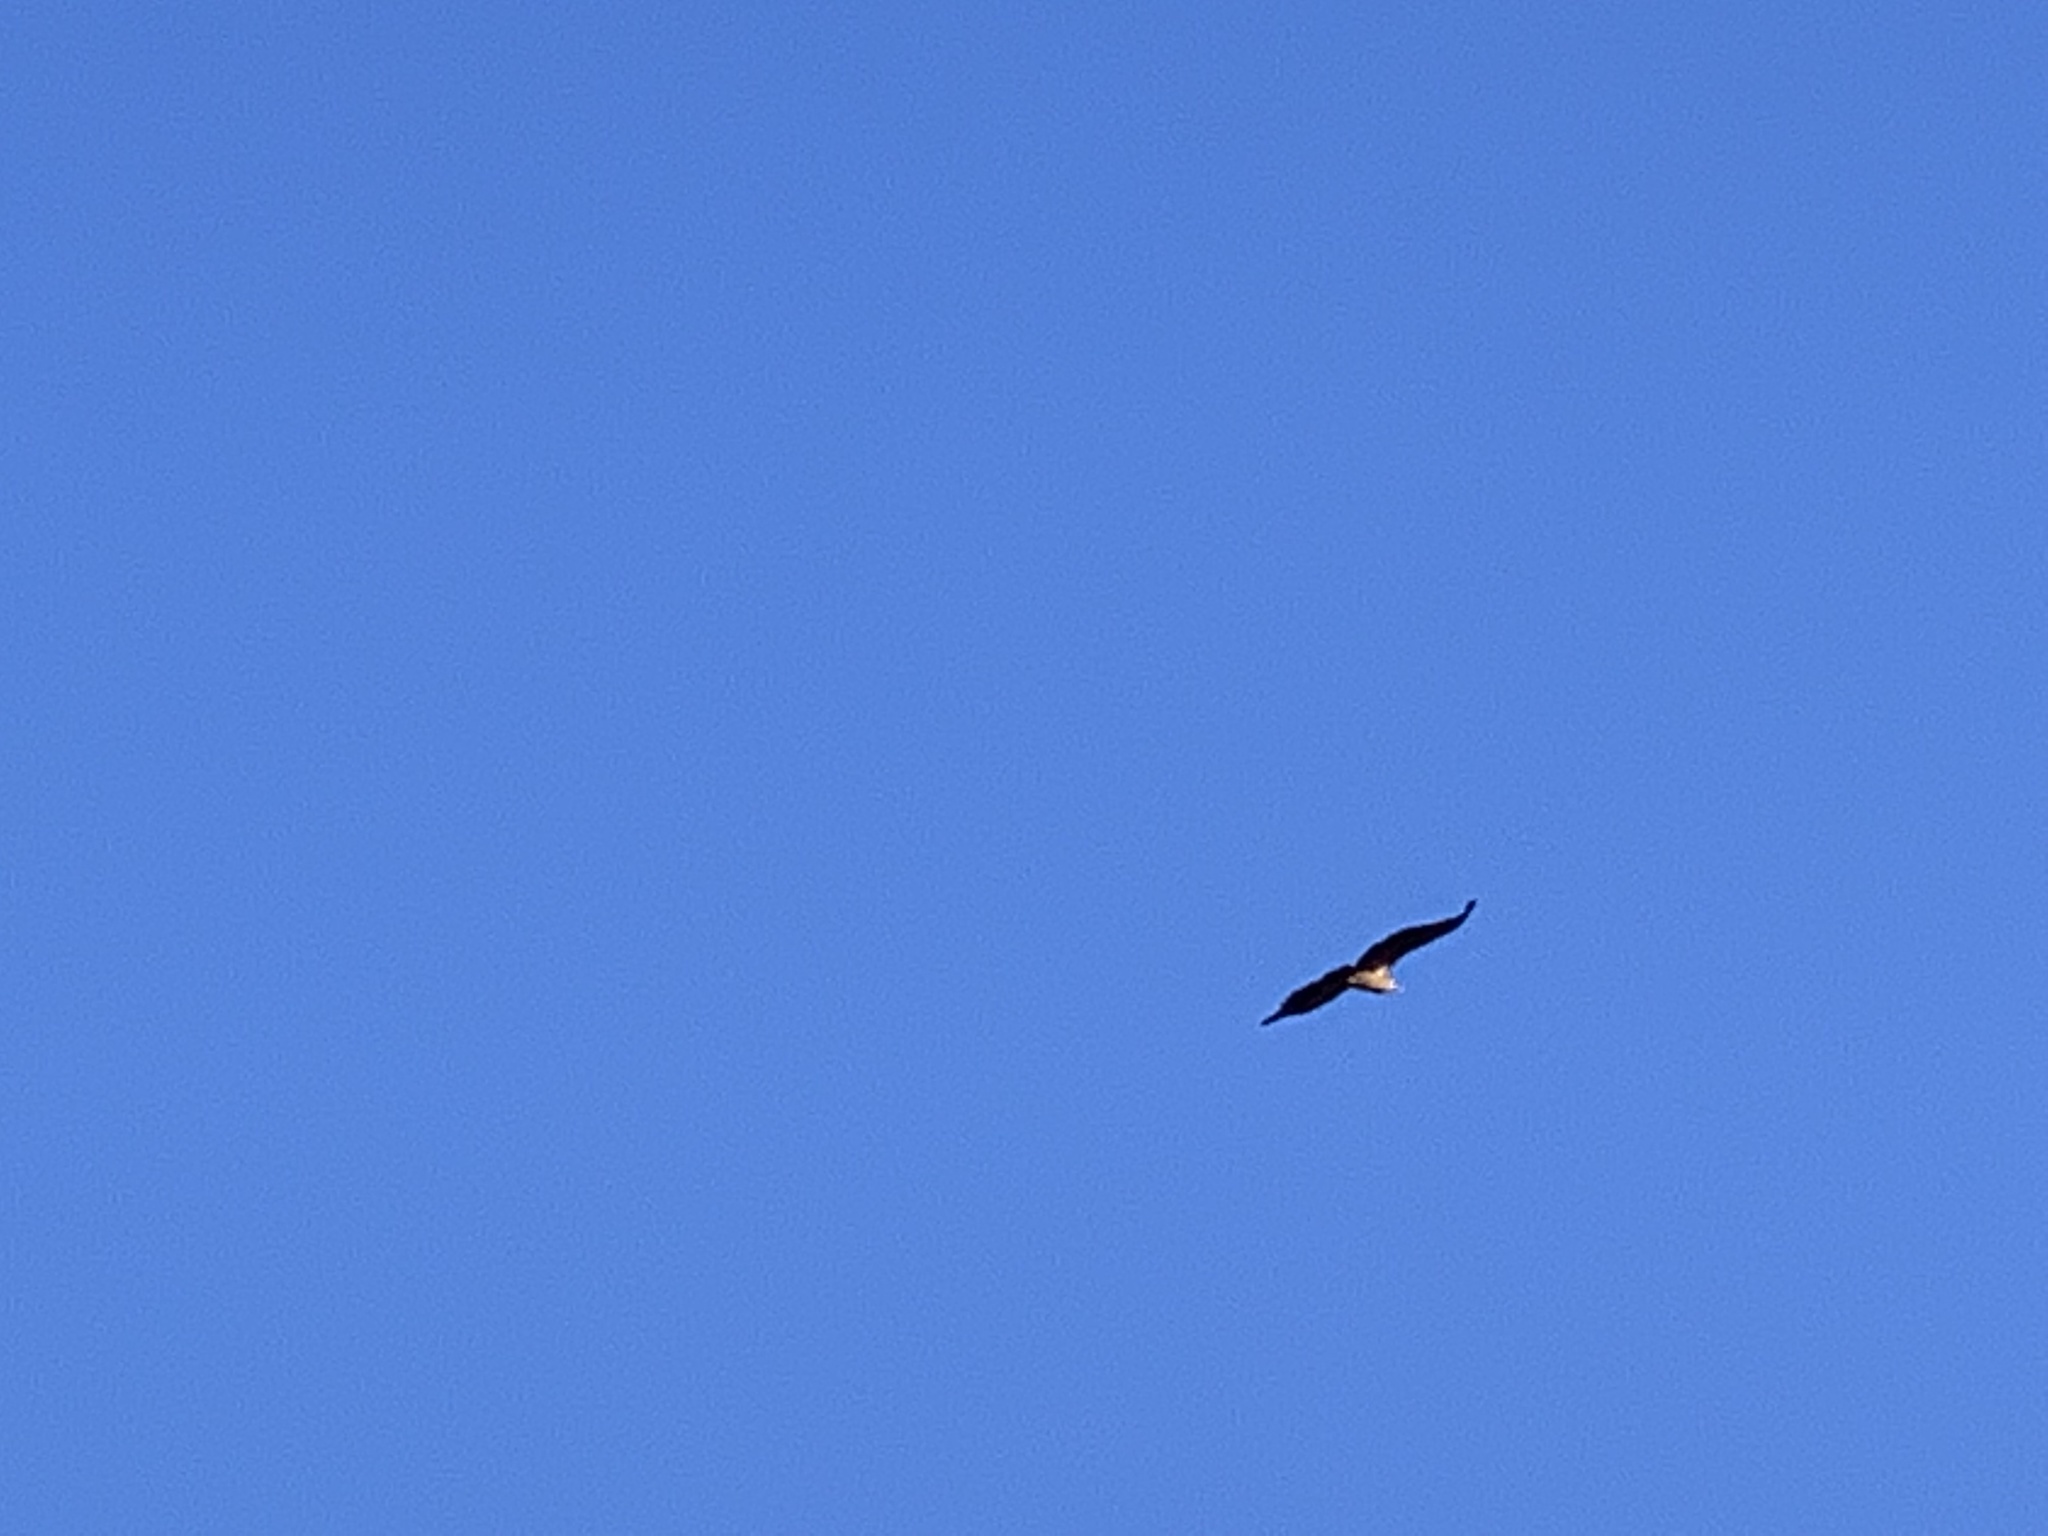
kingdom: Animalia
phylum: Chordata
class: Aves
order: Accipitriformes
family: Accipitridae
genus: Gyps
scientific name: Gyps fulvus
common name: Griffon vulture
